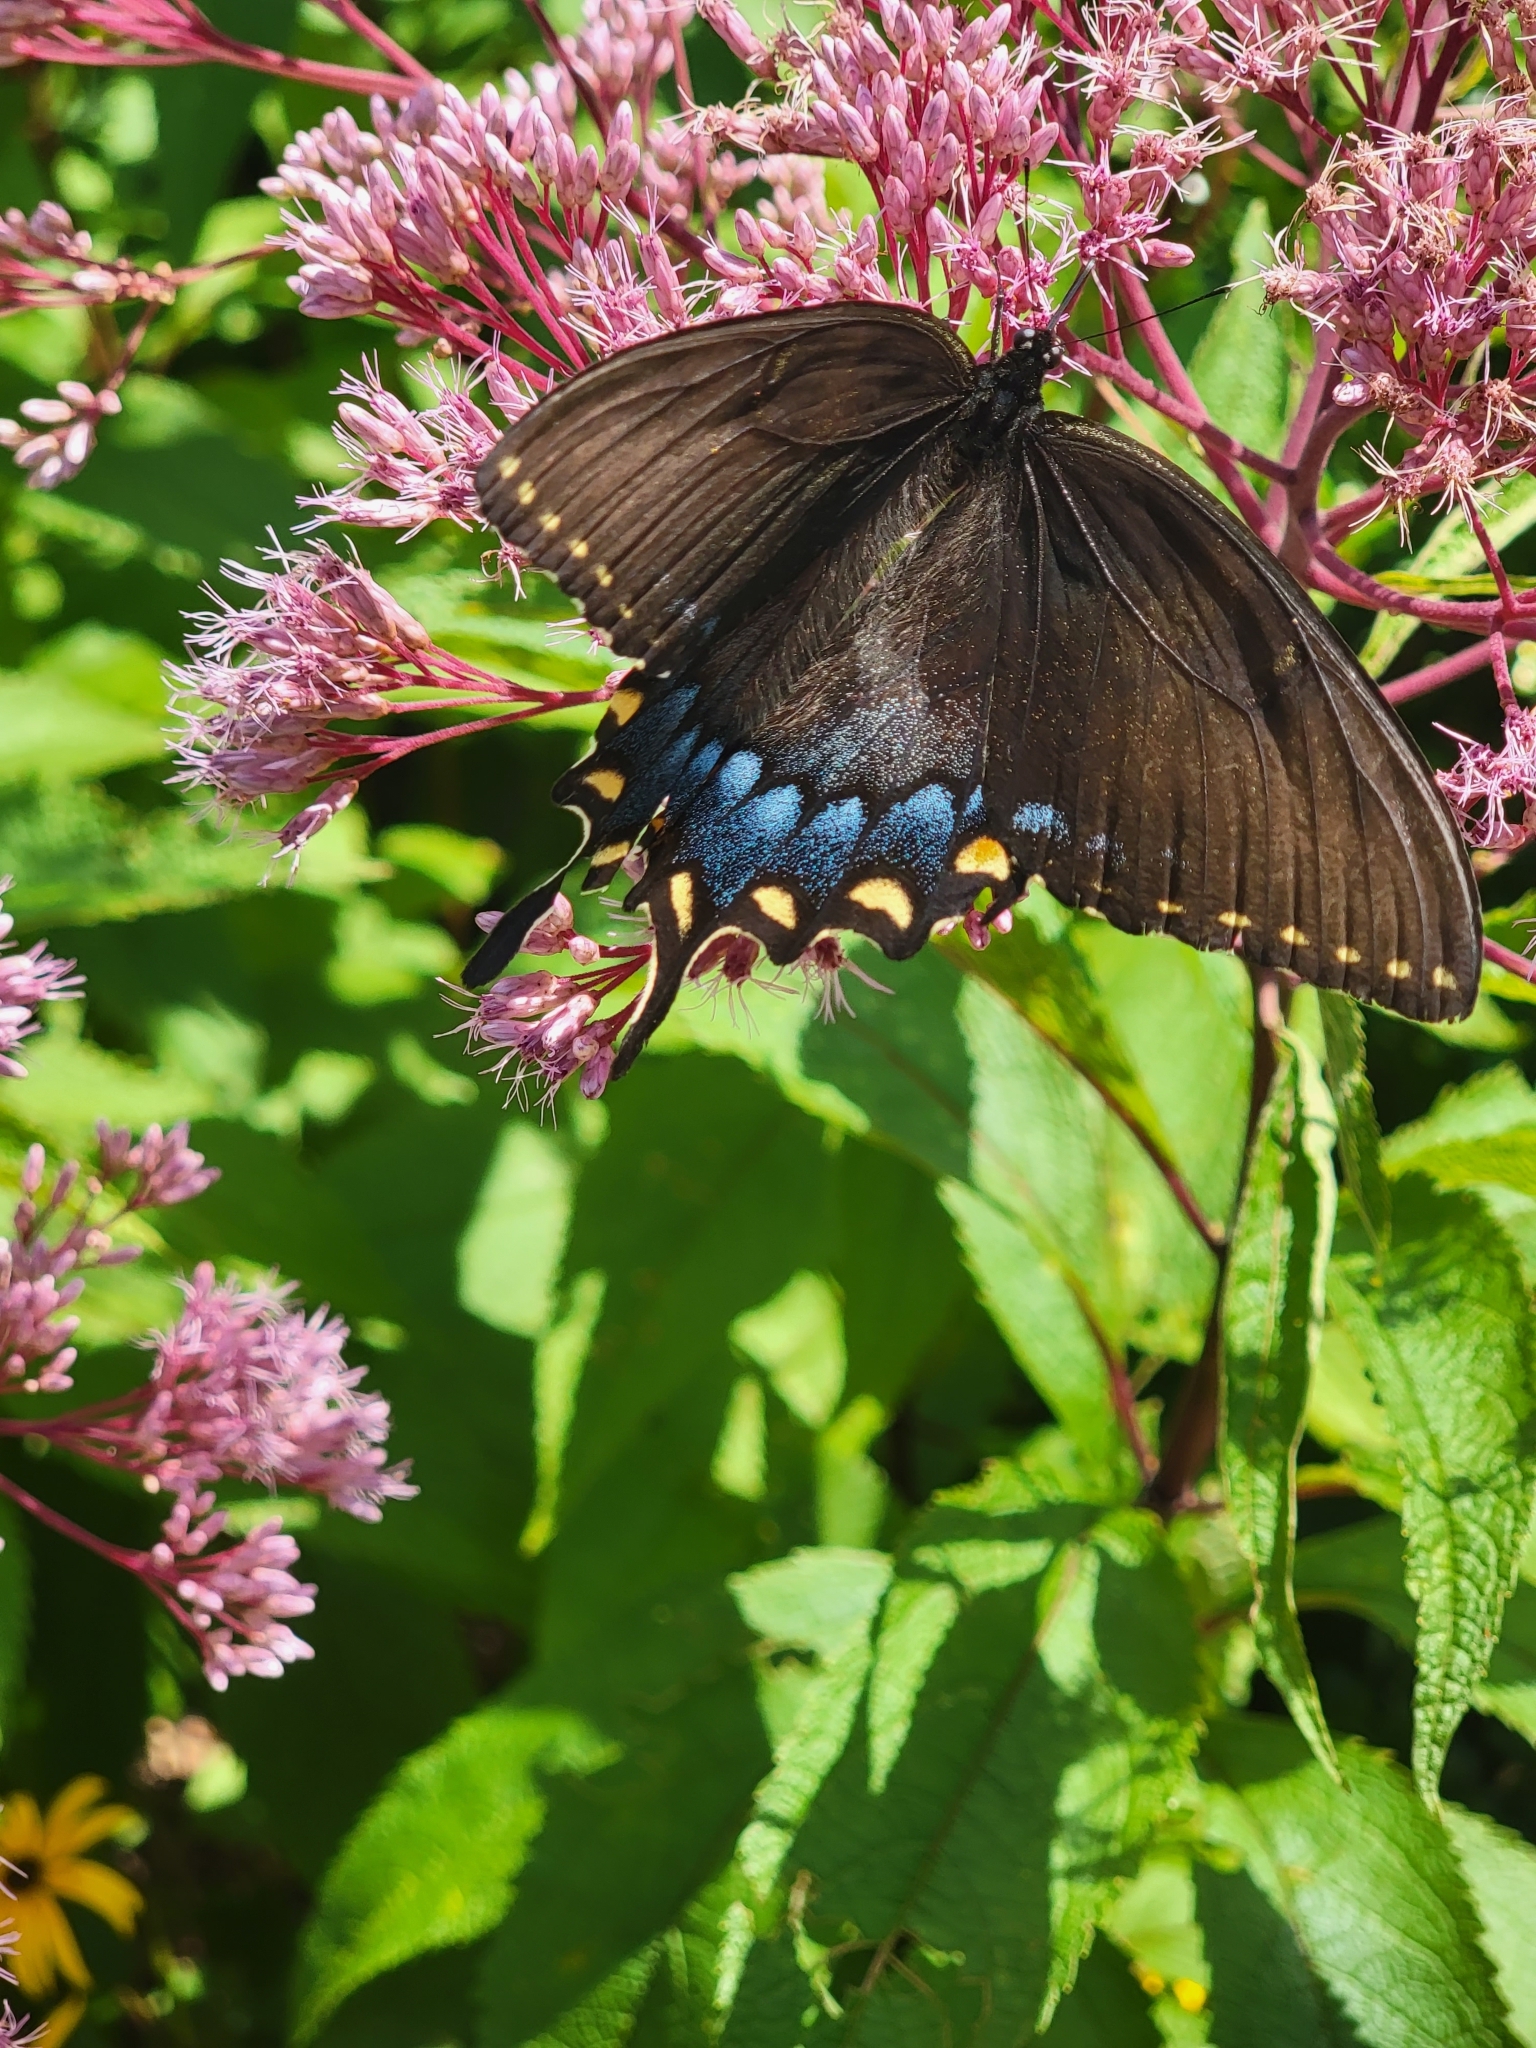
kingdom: Animalia
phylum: Arthropoda
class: Insecta
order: Lepidoptera
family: Papilionidae
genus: Papilio
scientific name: Papilio glaucus
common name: Tiger swallowtail
